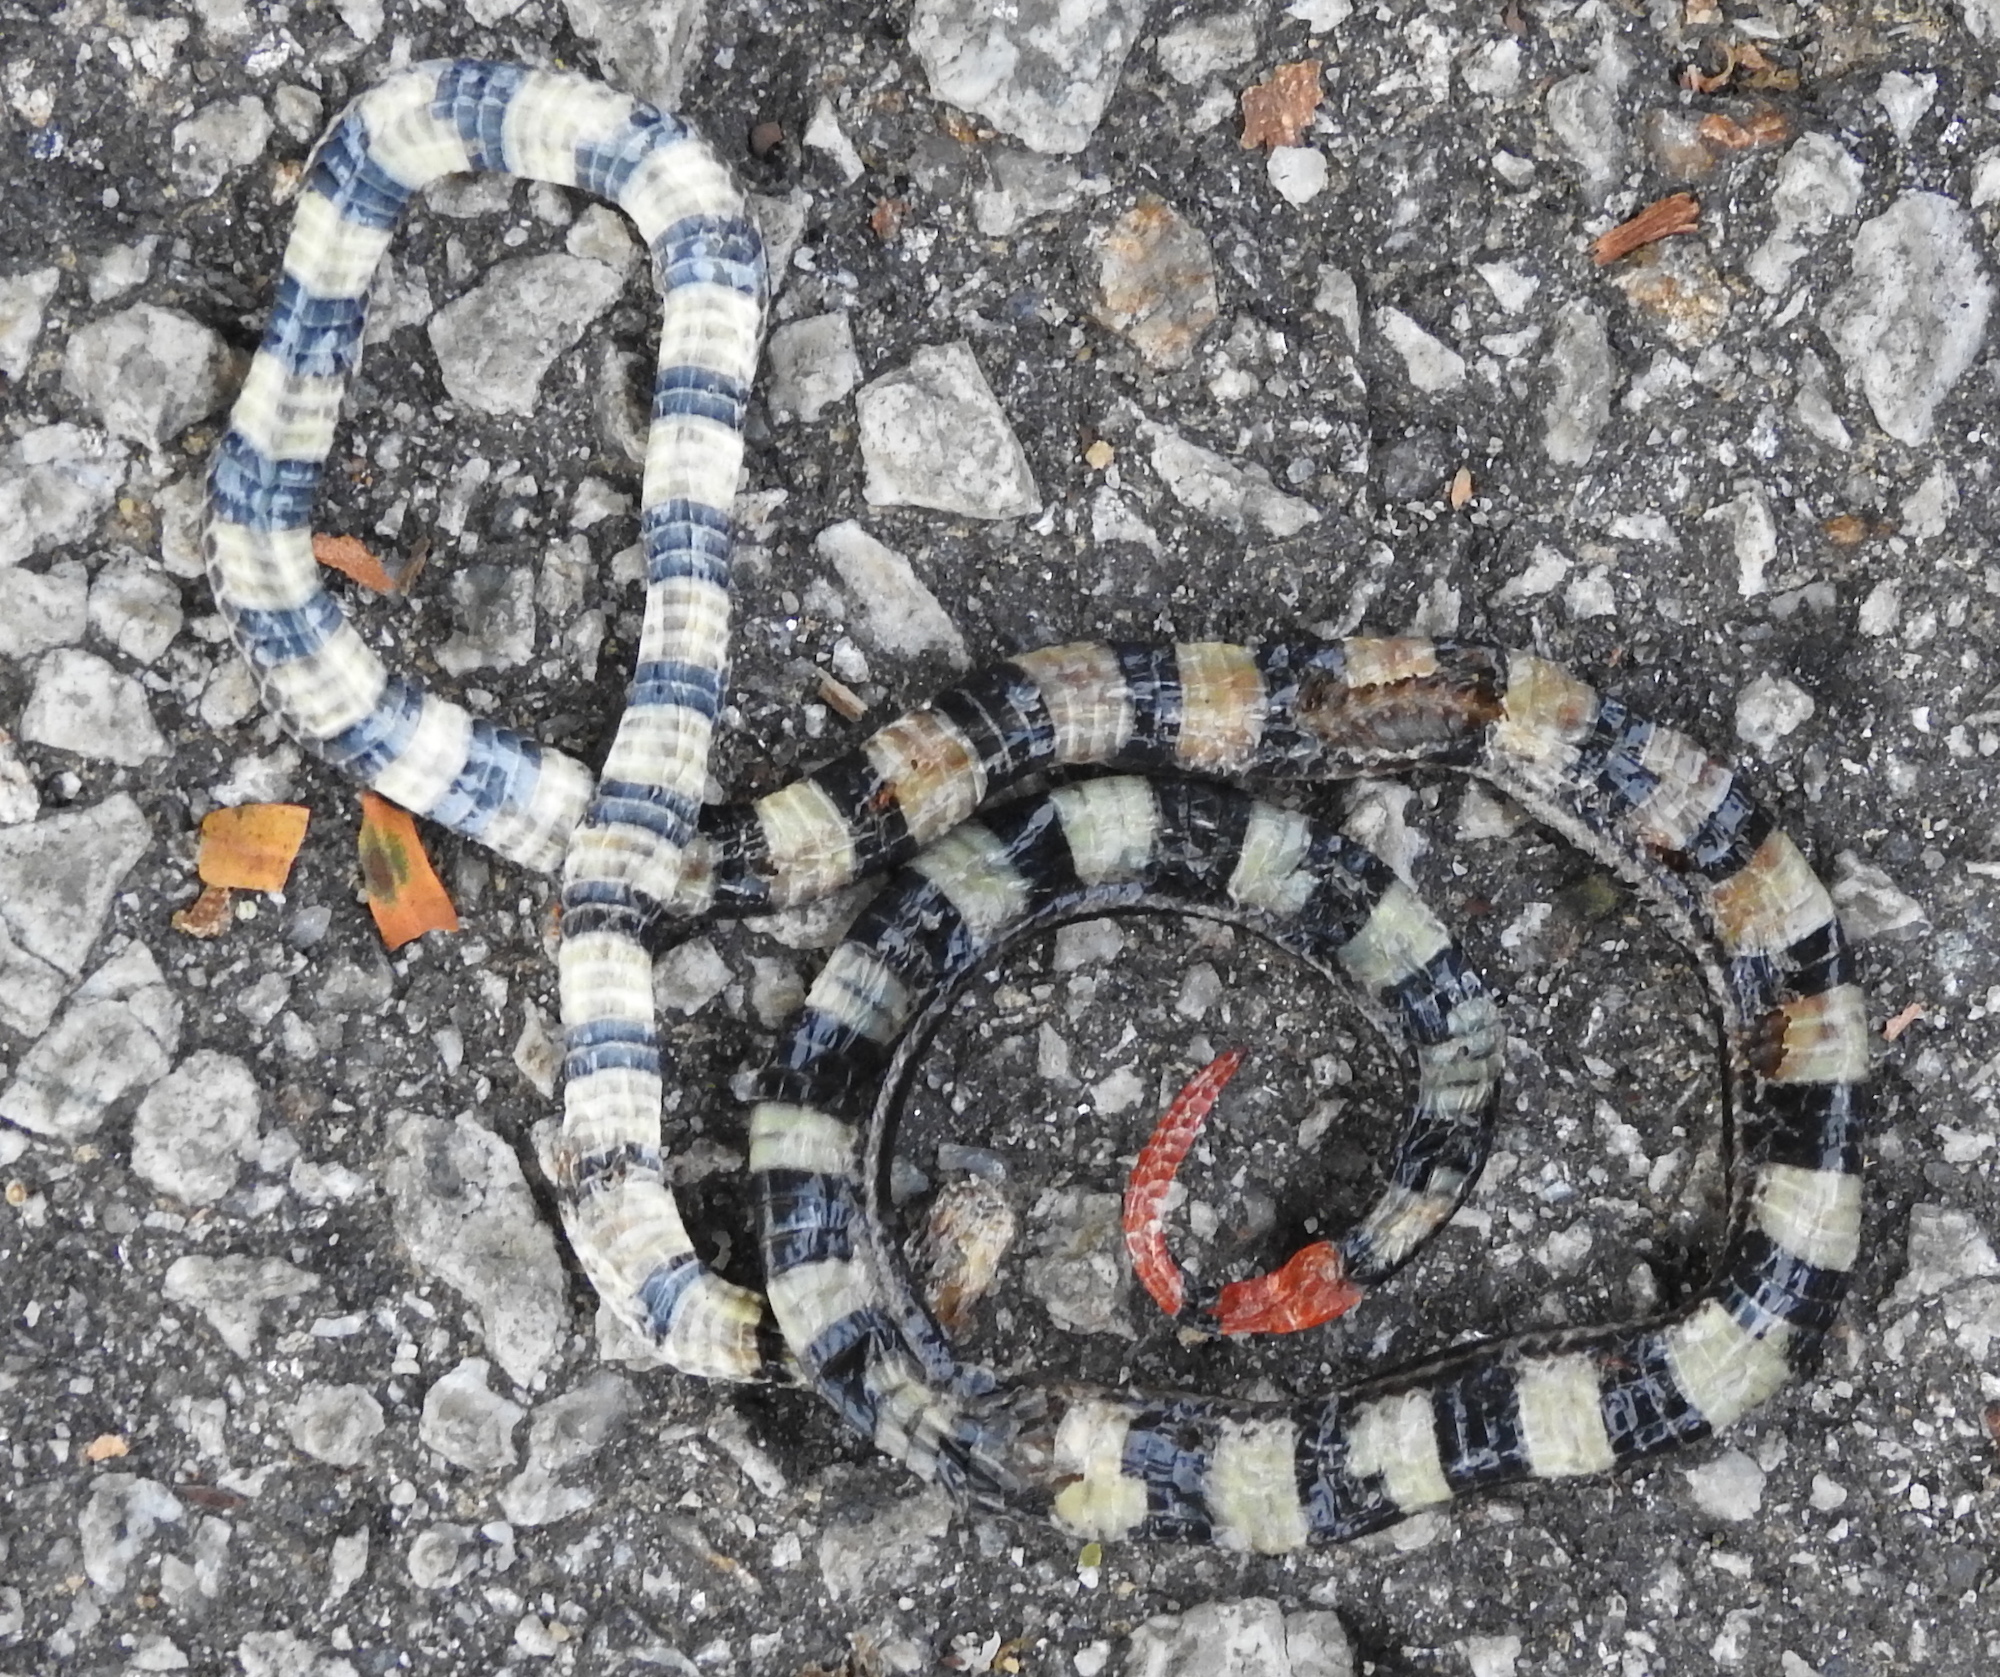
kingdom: Animalia
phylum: Chordata
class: Squamata
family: Elapidae
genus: Calliophis
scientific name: Calliophis intestinalis
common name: Striped coral snake
